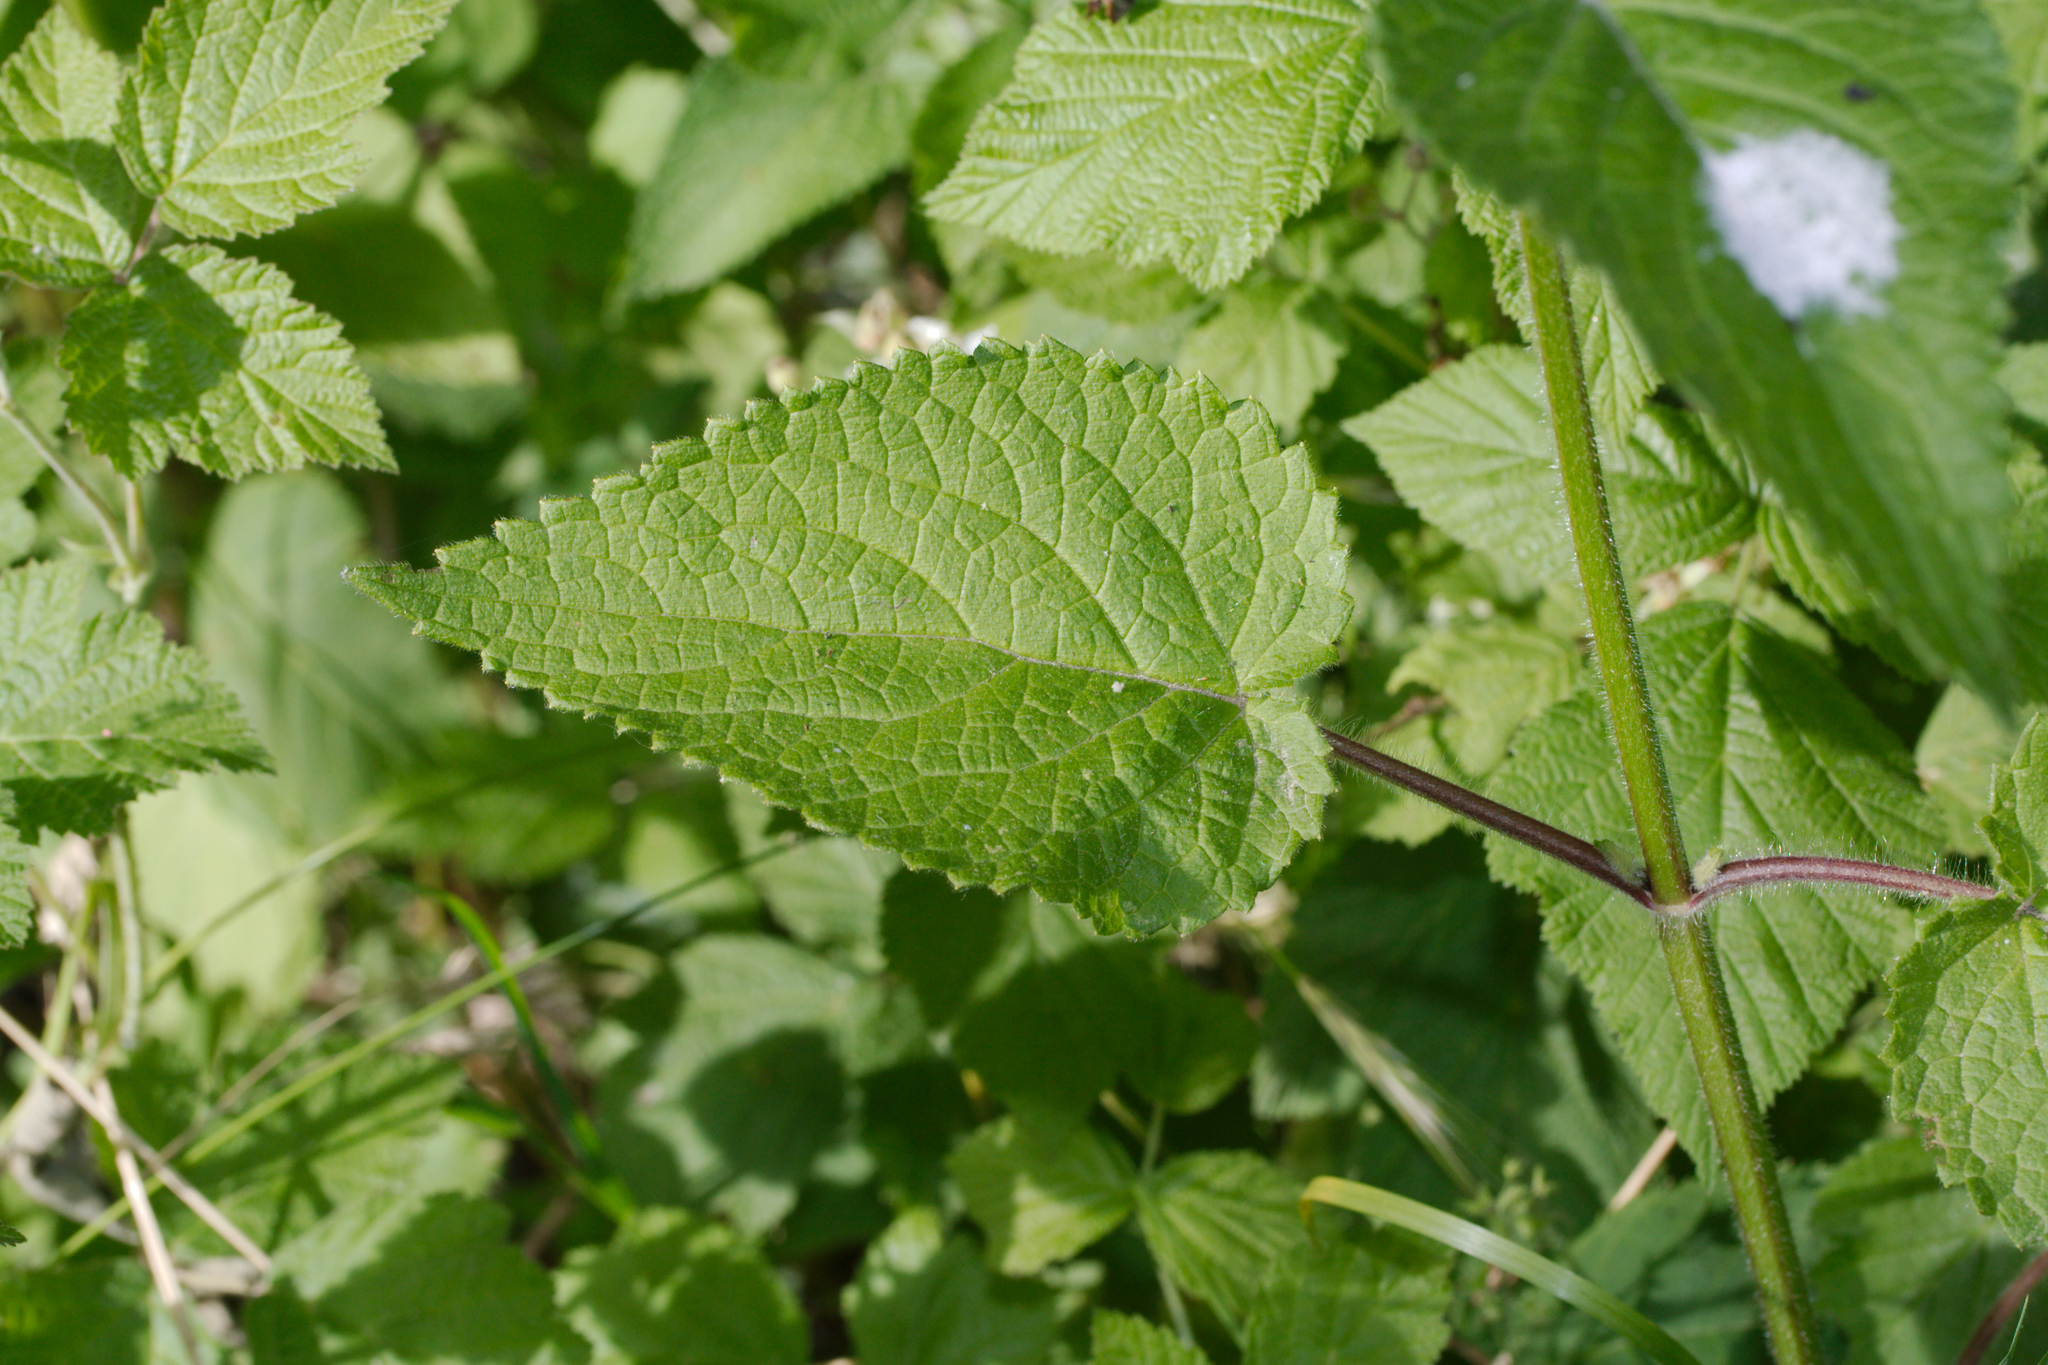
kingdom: Plantae
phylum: Tracheophyta
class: Magnoliopsida
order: Lamiales
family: Lamiaceae
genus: Stachys
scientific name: Stachys sylvatica
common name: Hedge woundwort
